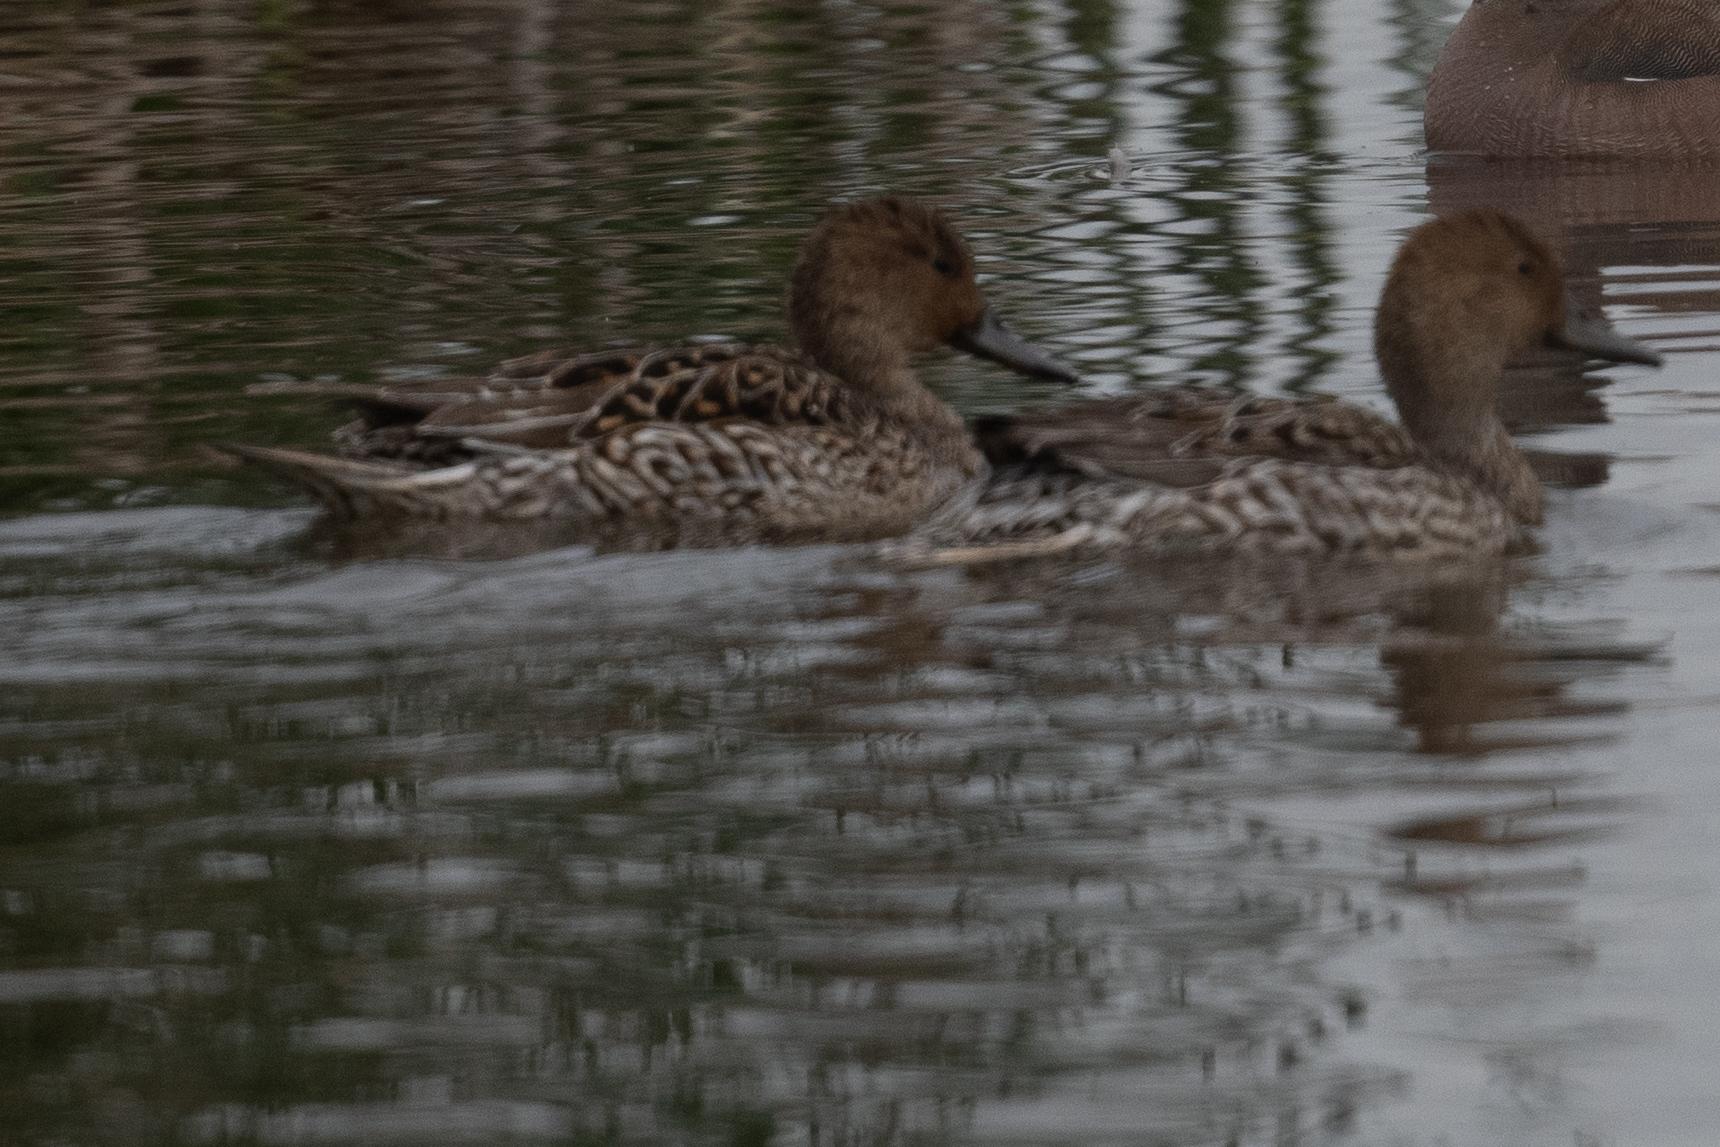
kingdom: Animalia
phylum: Chordata
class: Aves
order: Anseriformes
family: Anatidae
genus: Anas
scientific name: Anas acuta
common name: Northern pintail
